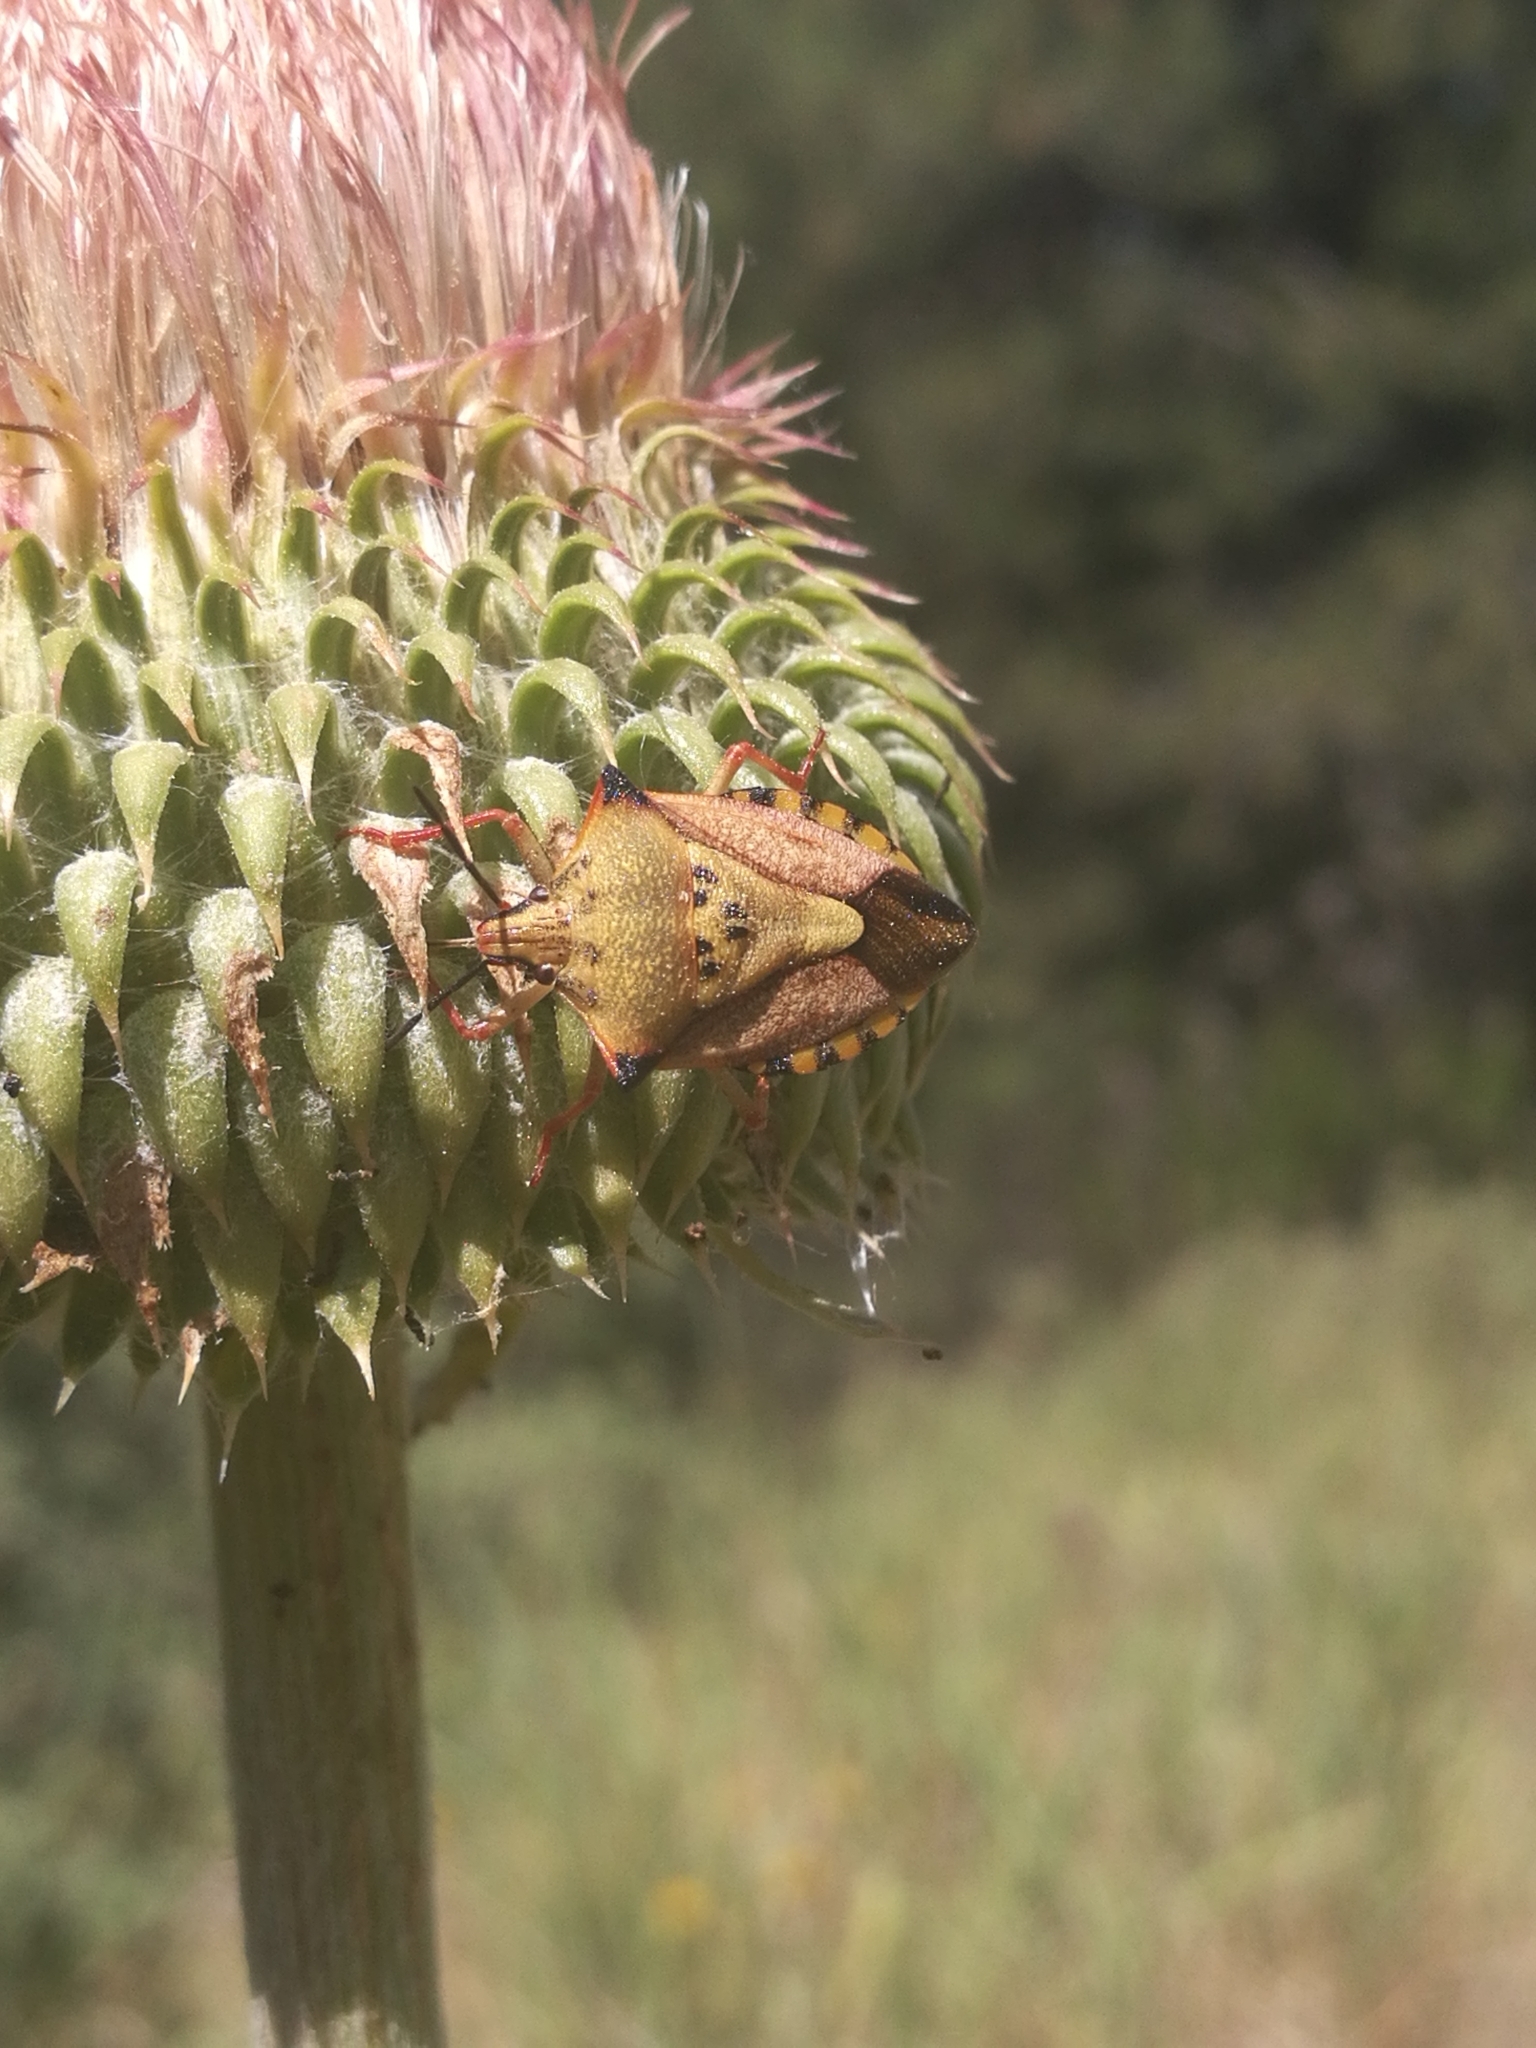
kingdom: Animalia
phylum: Arthropoda
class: Insecta
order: Hemiptera
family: Pentatomidae
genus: Carpocoris
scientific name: Carpocoris mediterraneus
